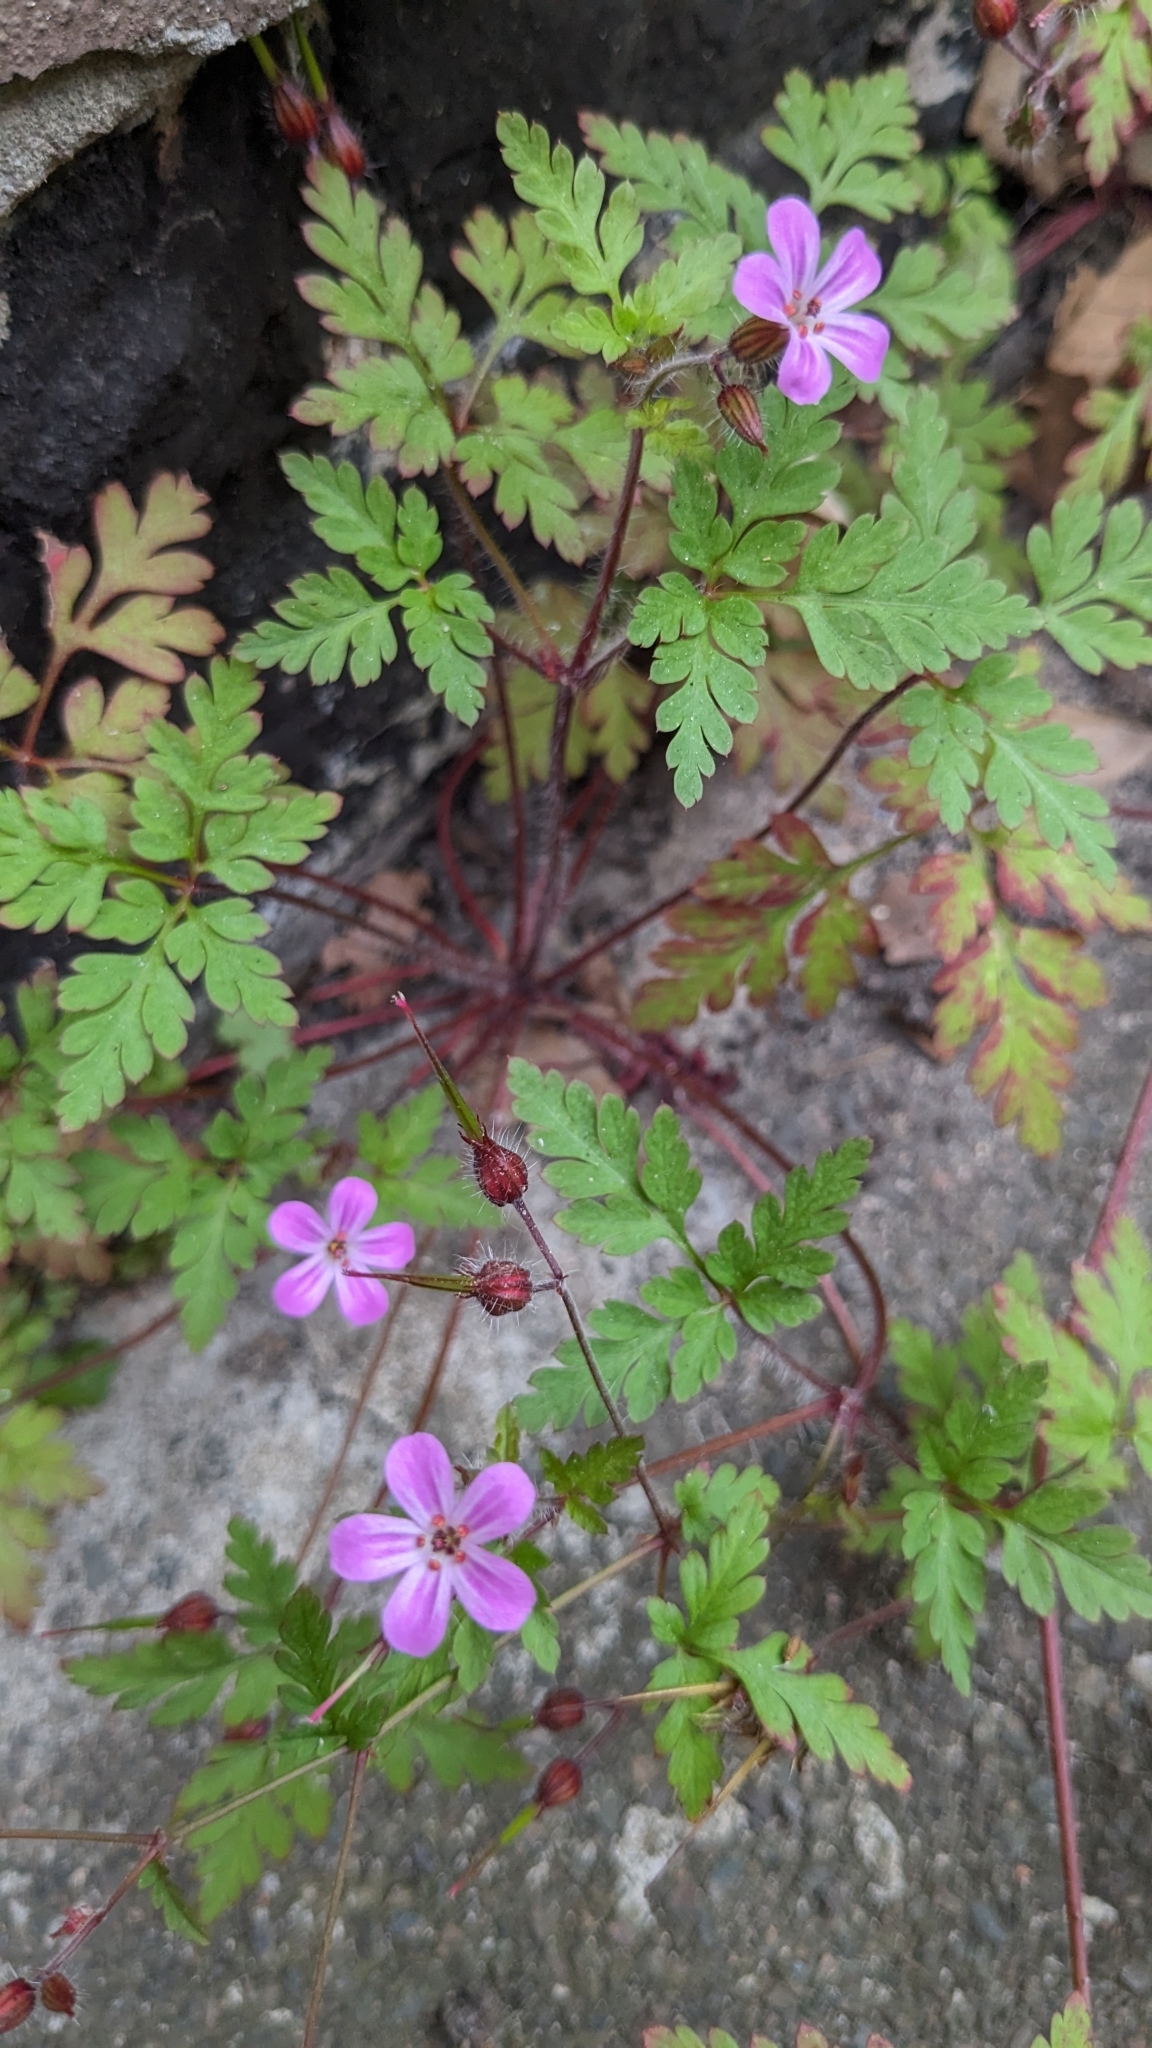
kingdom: Plantae
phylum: Tracheophyta
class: Magnoliopsida
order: Geraniales
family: Geraniaceae
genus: Geranium
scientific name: Geranium robertianum
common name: Herb-robert
